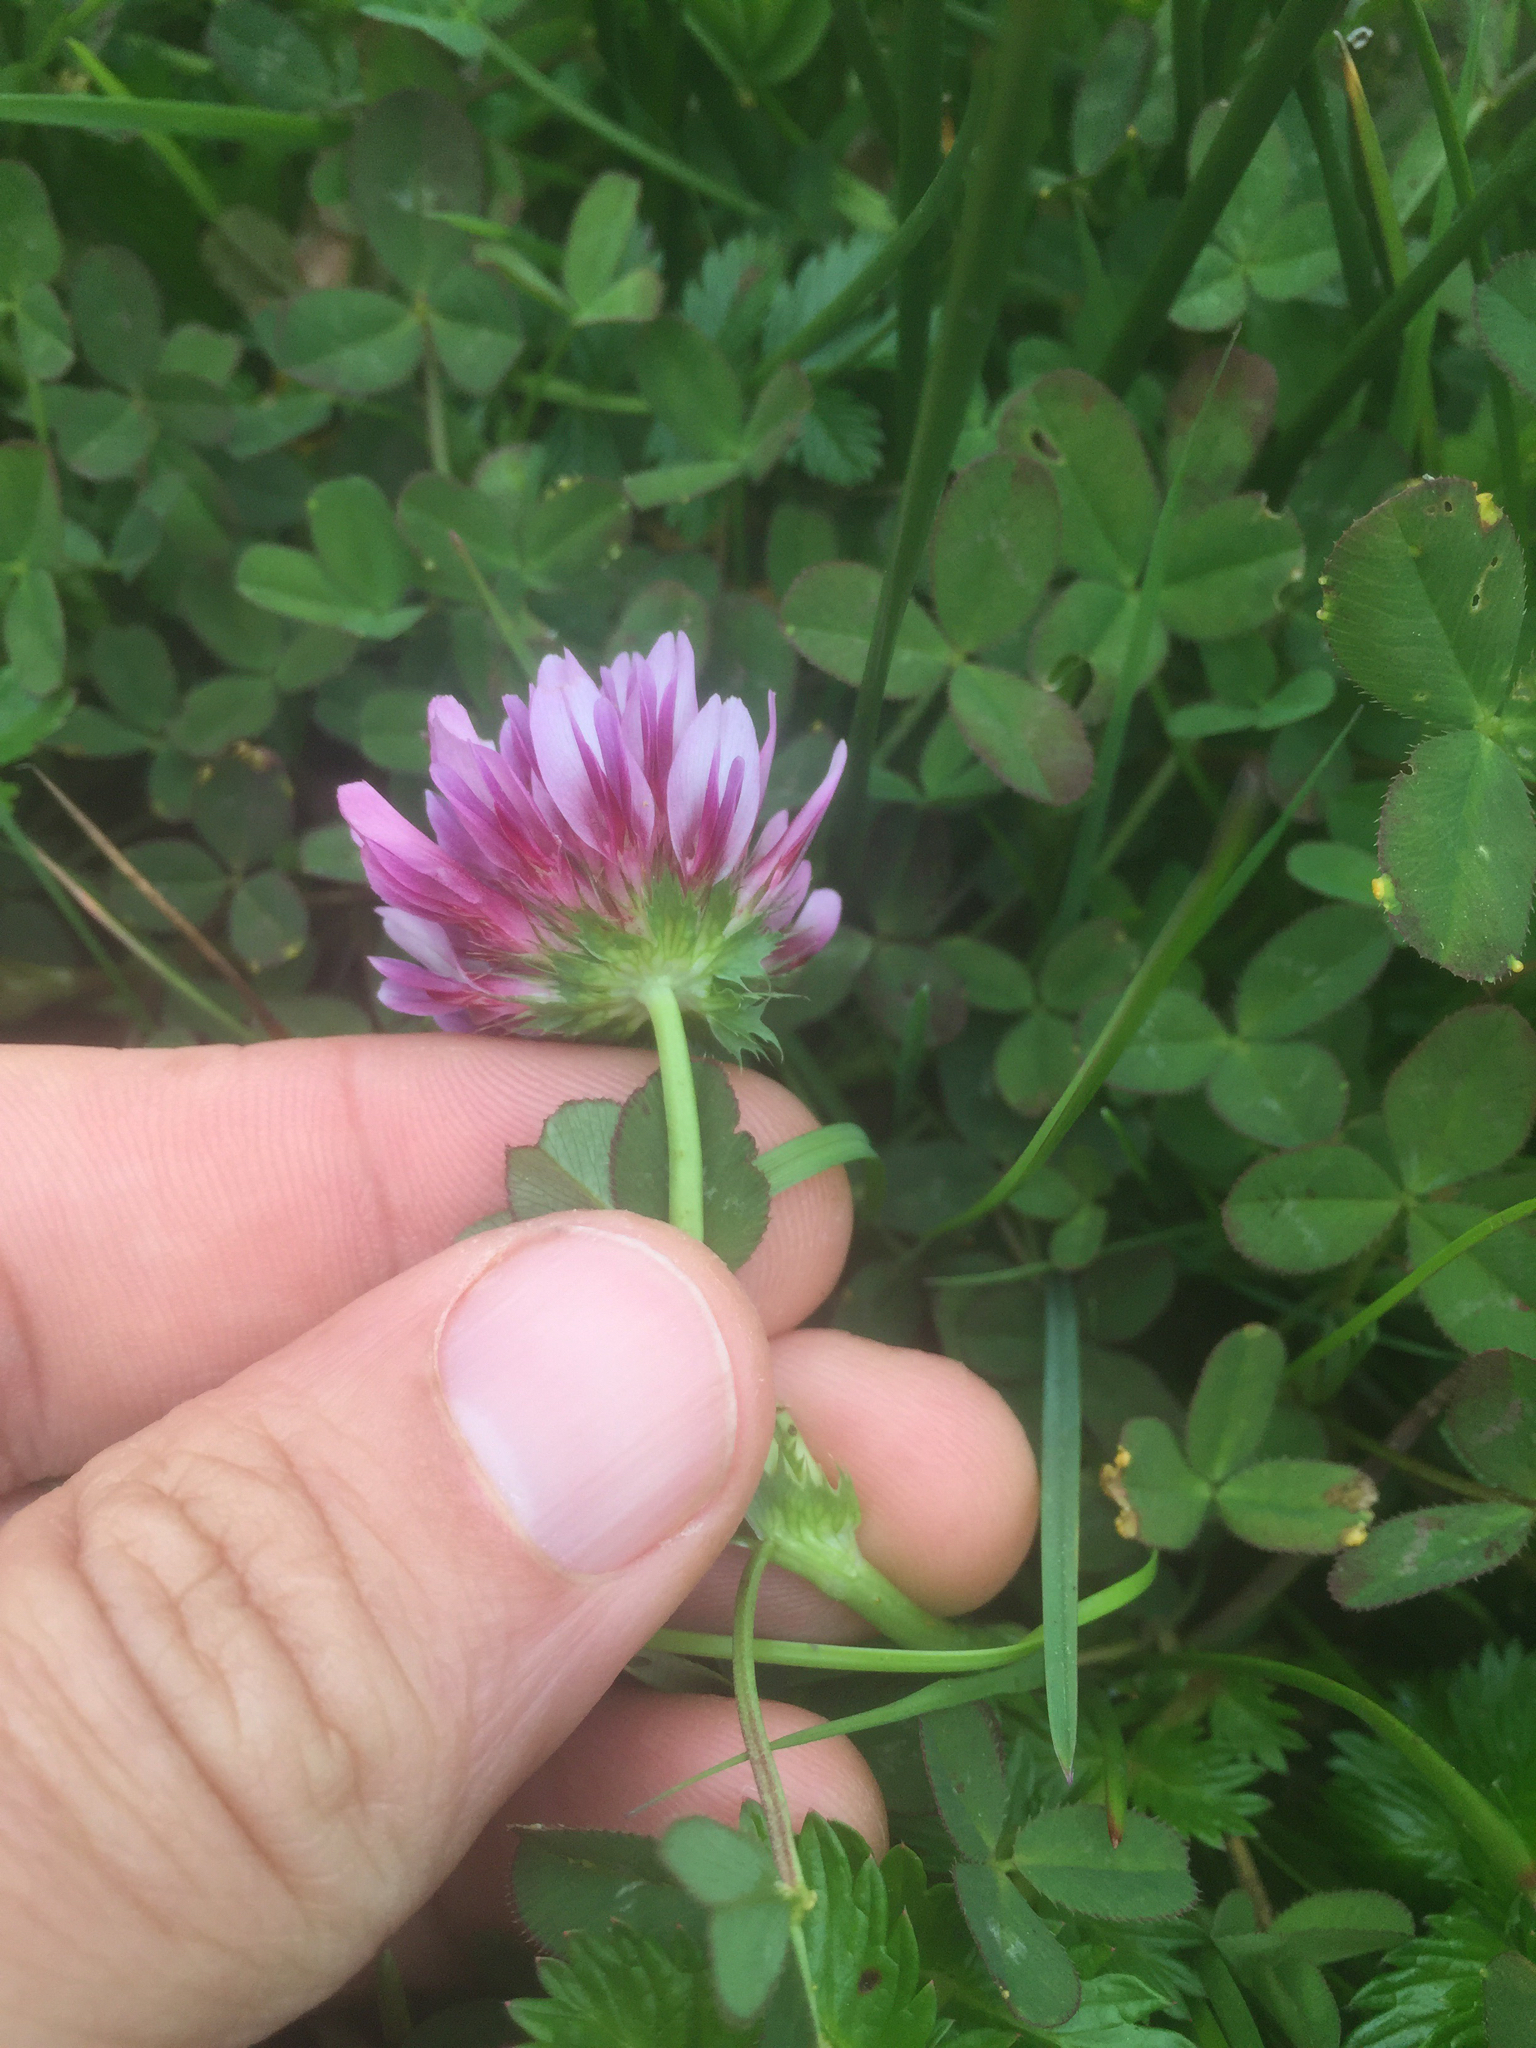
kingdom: Plantae
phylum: Tracheophyta
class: Magnoliopsida
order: Fabales
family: Fabaceae
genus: Trifolium
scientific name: Trifolium wormskioldii
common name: Springbank clover
